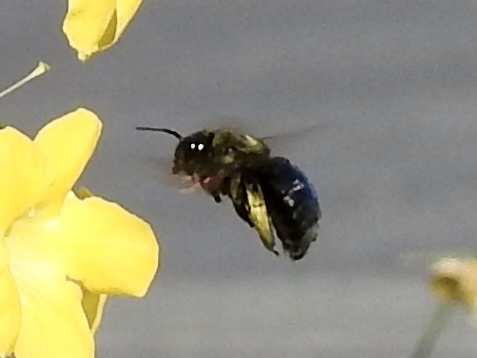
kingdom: Animalia
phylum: Arthropoda
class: Insecta
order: Hymenoptera
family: Apidae
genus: Xylocopa
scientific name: Xylocopa sonorina
